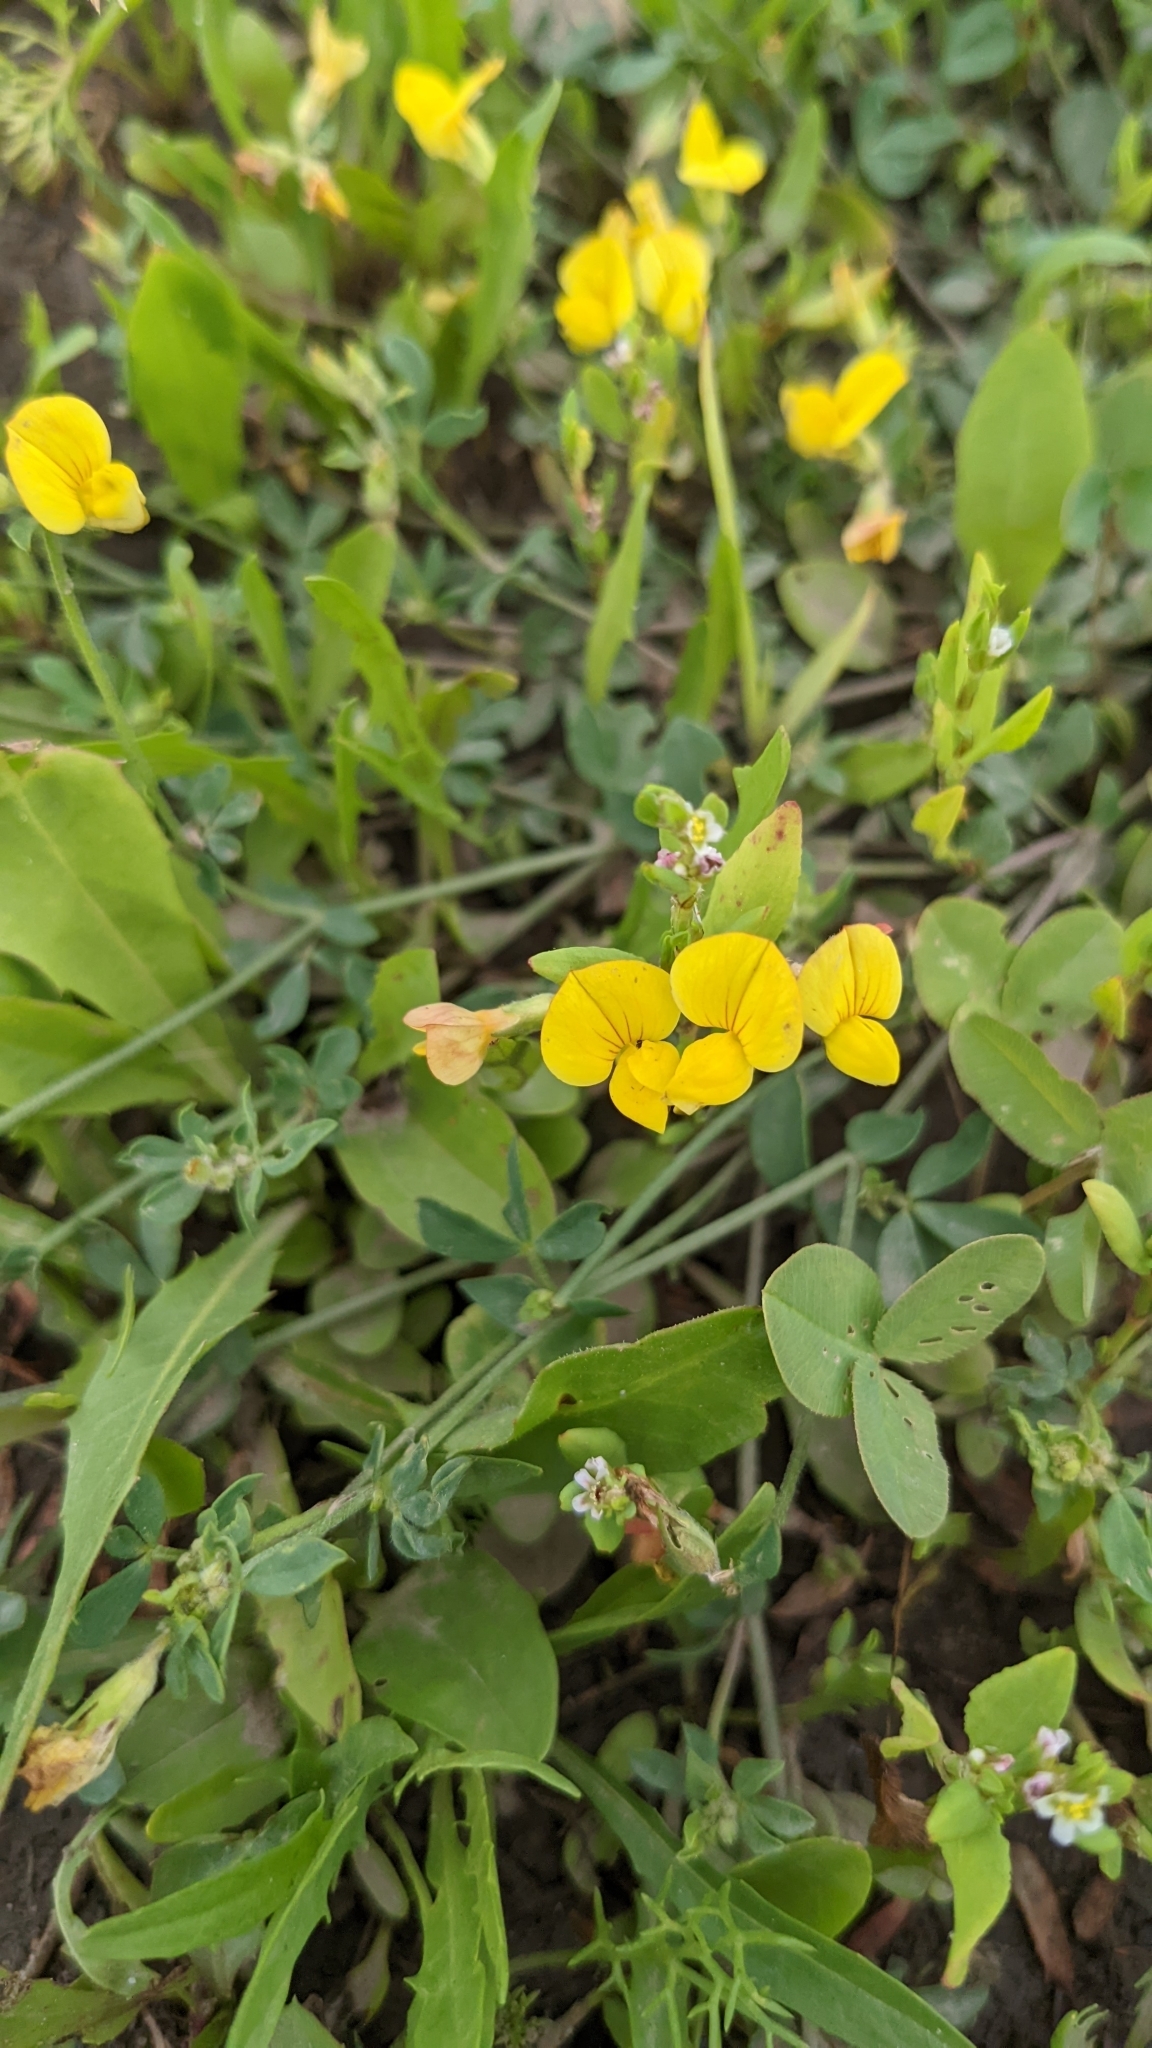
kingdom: Plantae
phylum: Tracheophyta
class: Magnoliopsida
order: Fabales
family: Fabaceae
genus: Lotus
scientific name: Lotus corniculatus
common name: Common bird's-foot-trefoil
